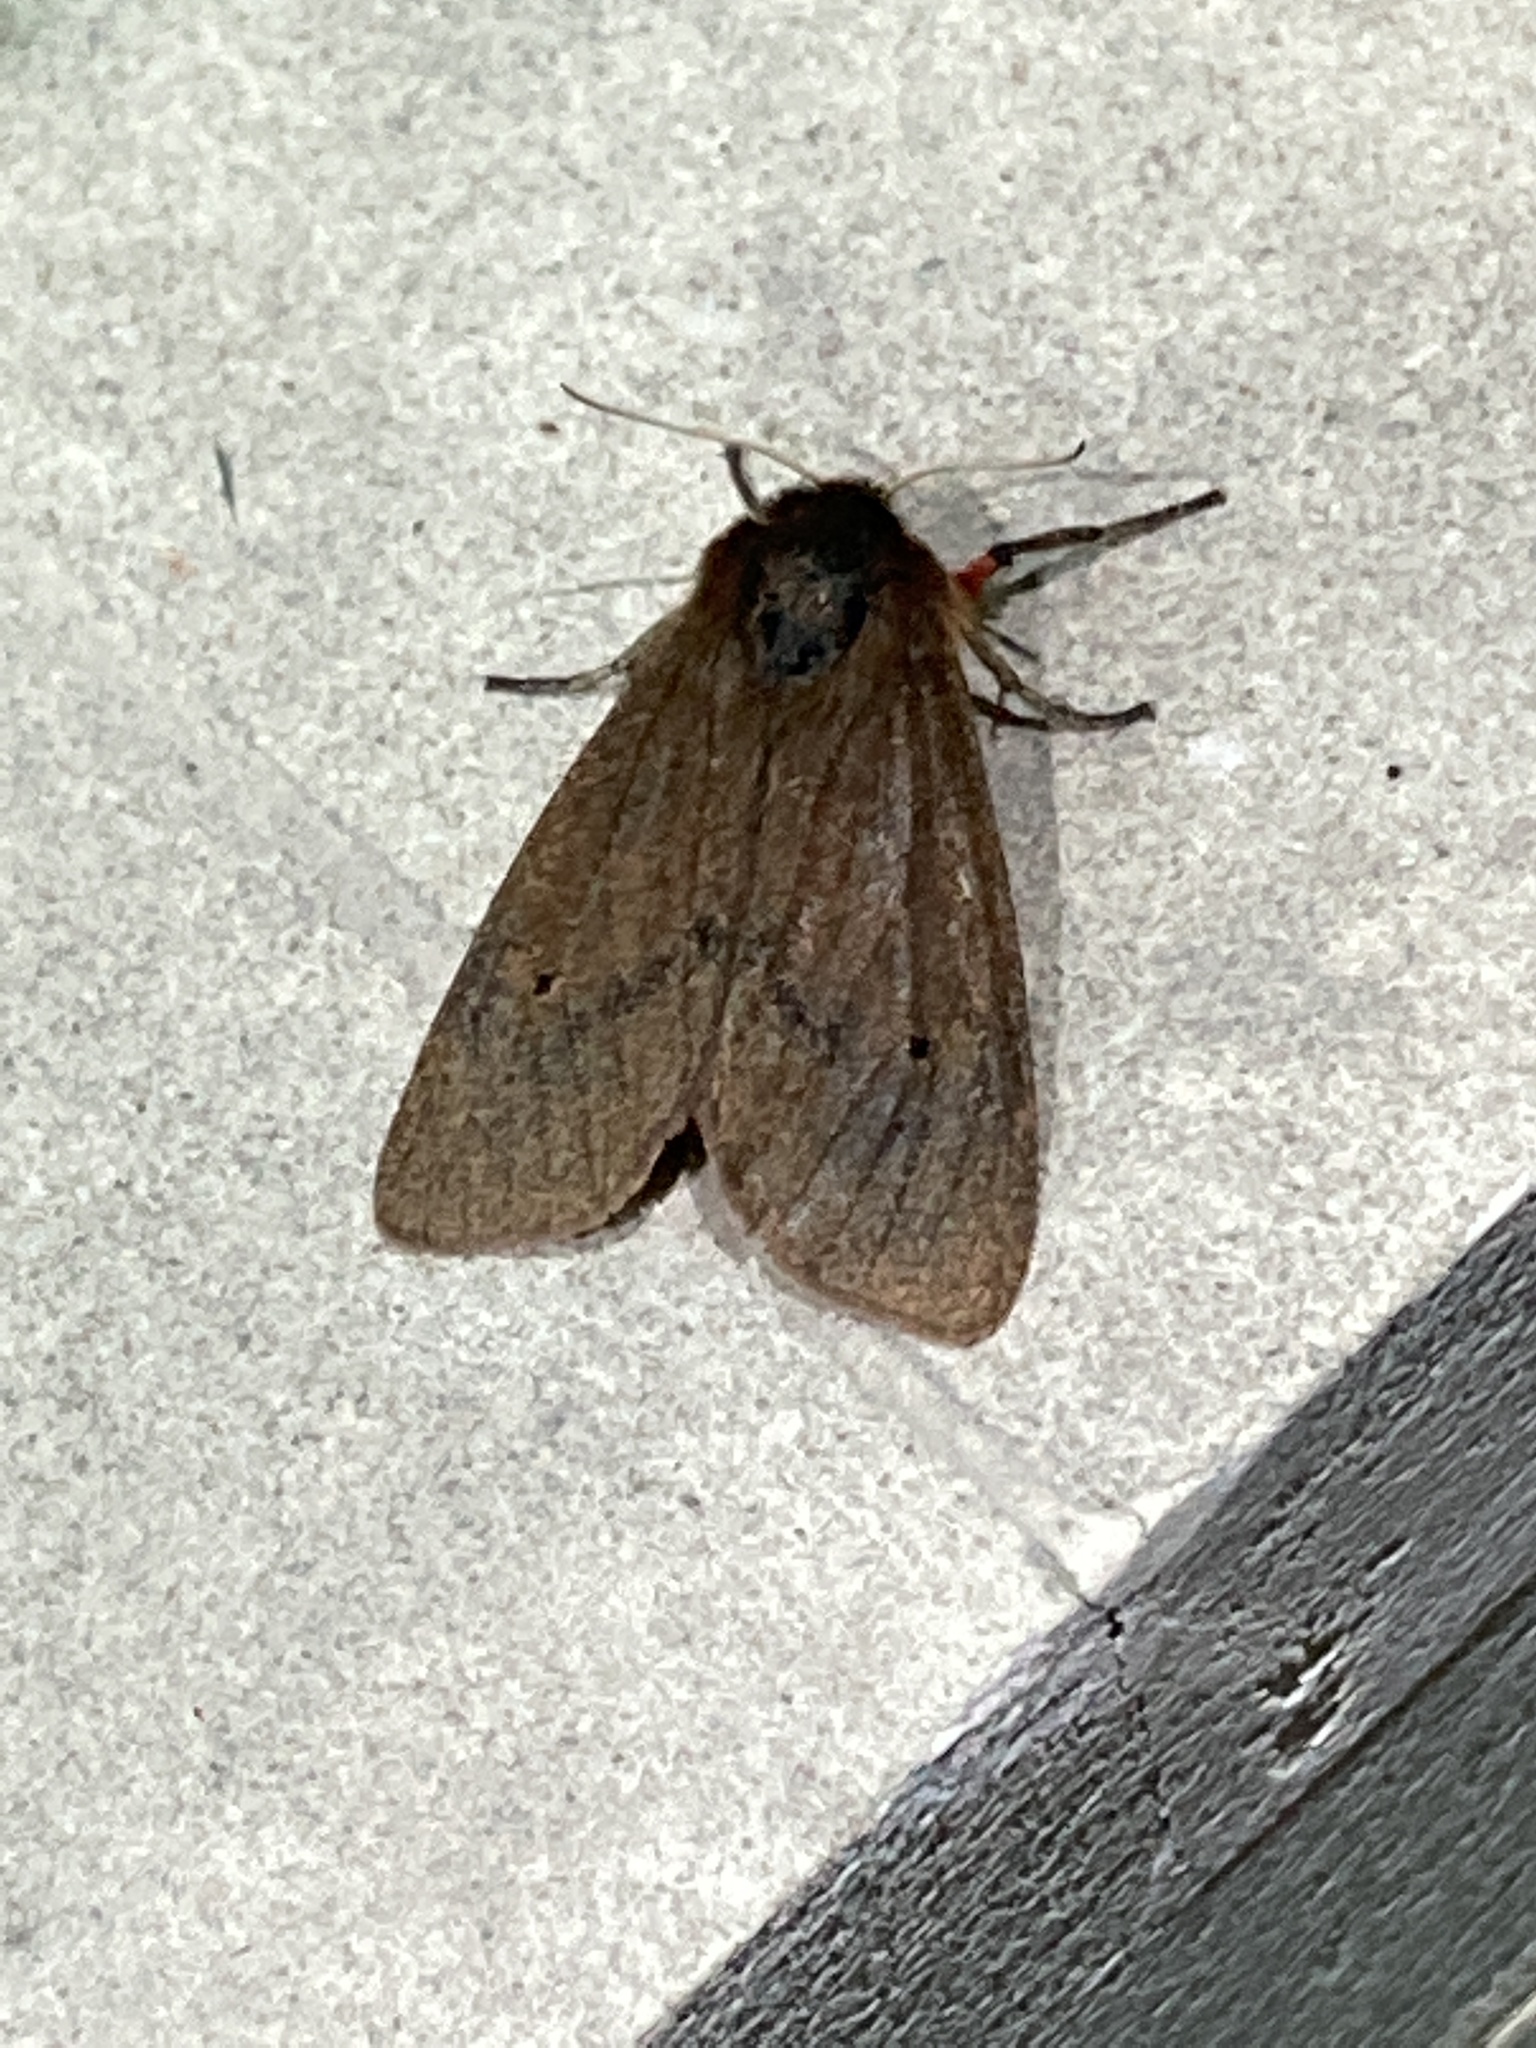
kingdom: Animalia
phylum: Arthropoda
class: Insecta
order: Lepidoptera
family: Erebidae
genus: Phragmatobia
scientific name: Phragmatobia fuliginosa
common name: Ruby tiger
